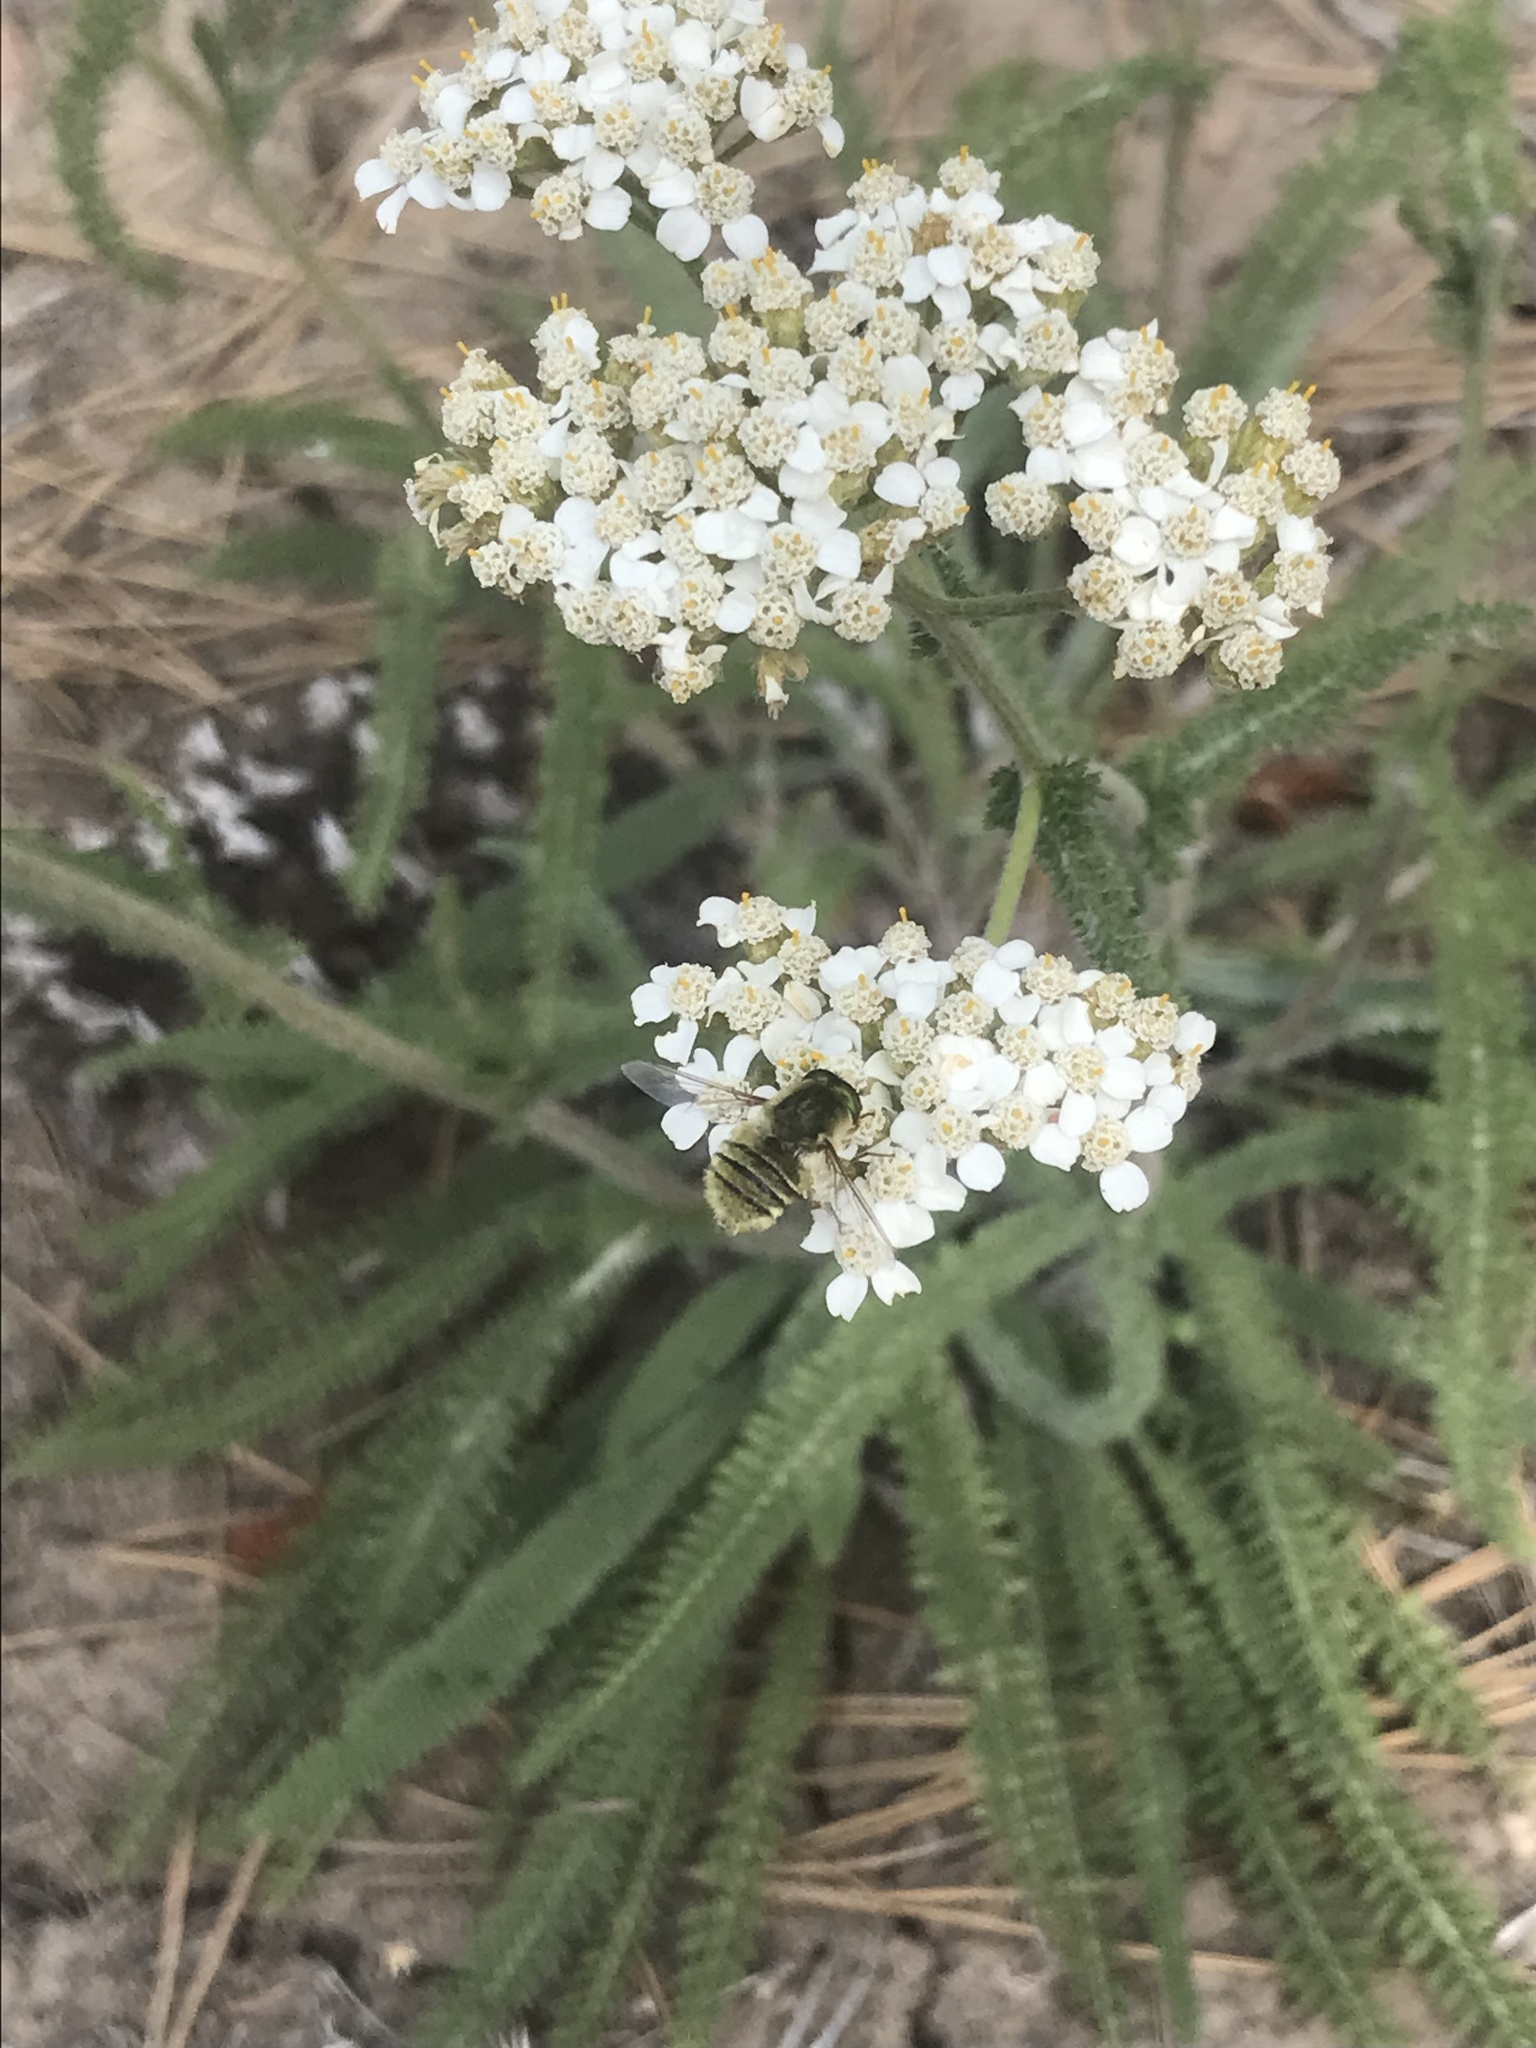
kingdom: Animalia
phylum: Arthropoda
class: Insecta
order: Diptera
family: Nemestrinidae
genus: Neorhynchocephalus
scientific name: Neorhynchocephalus sackenii
